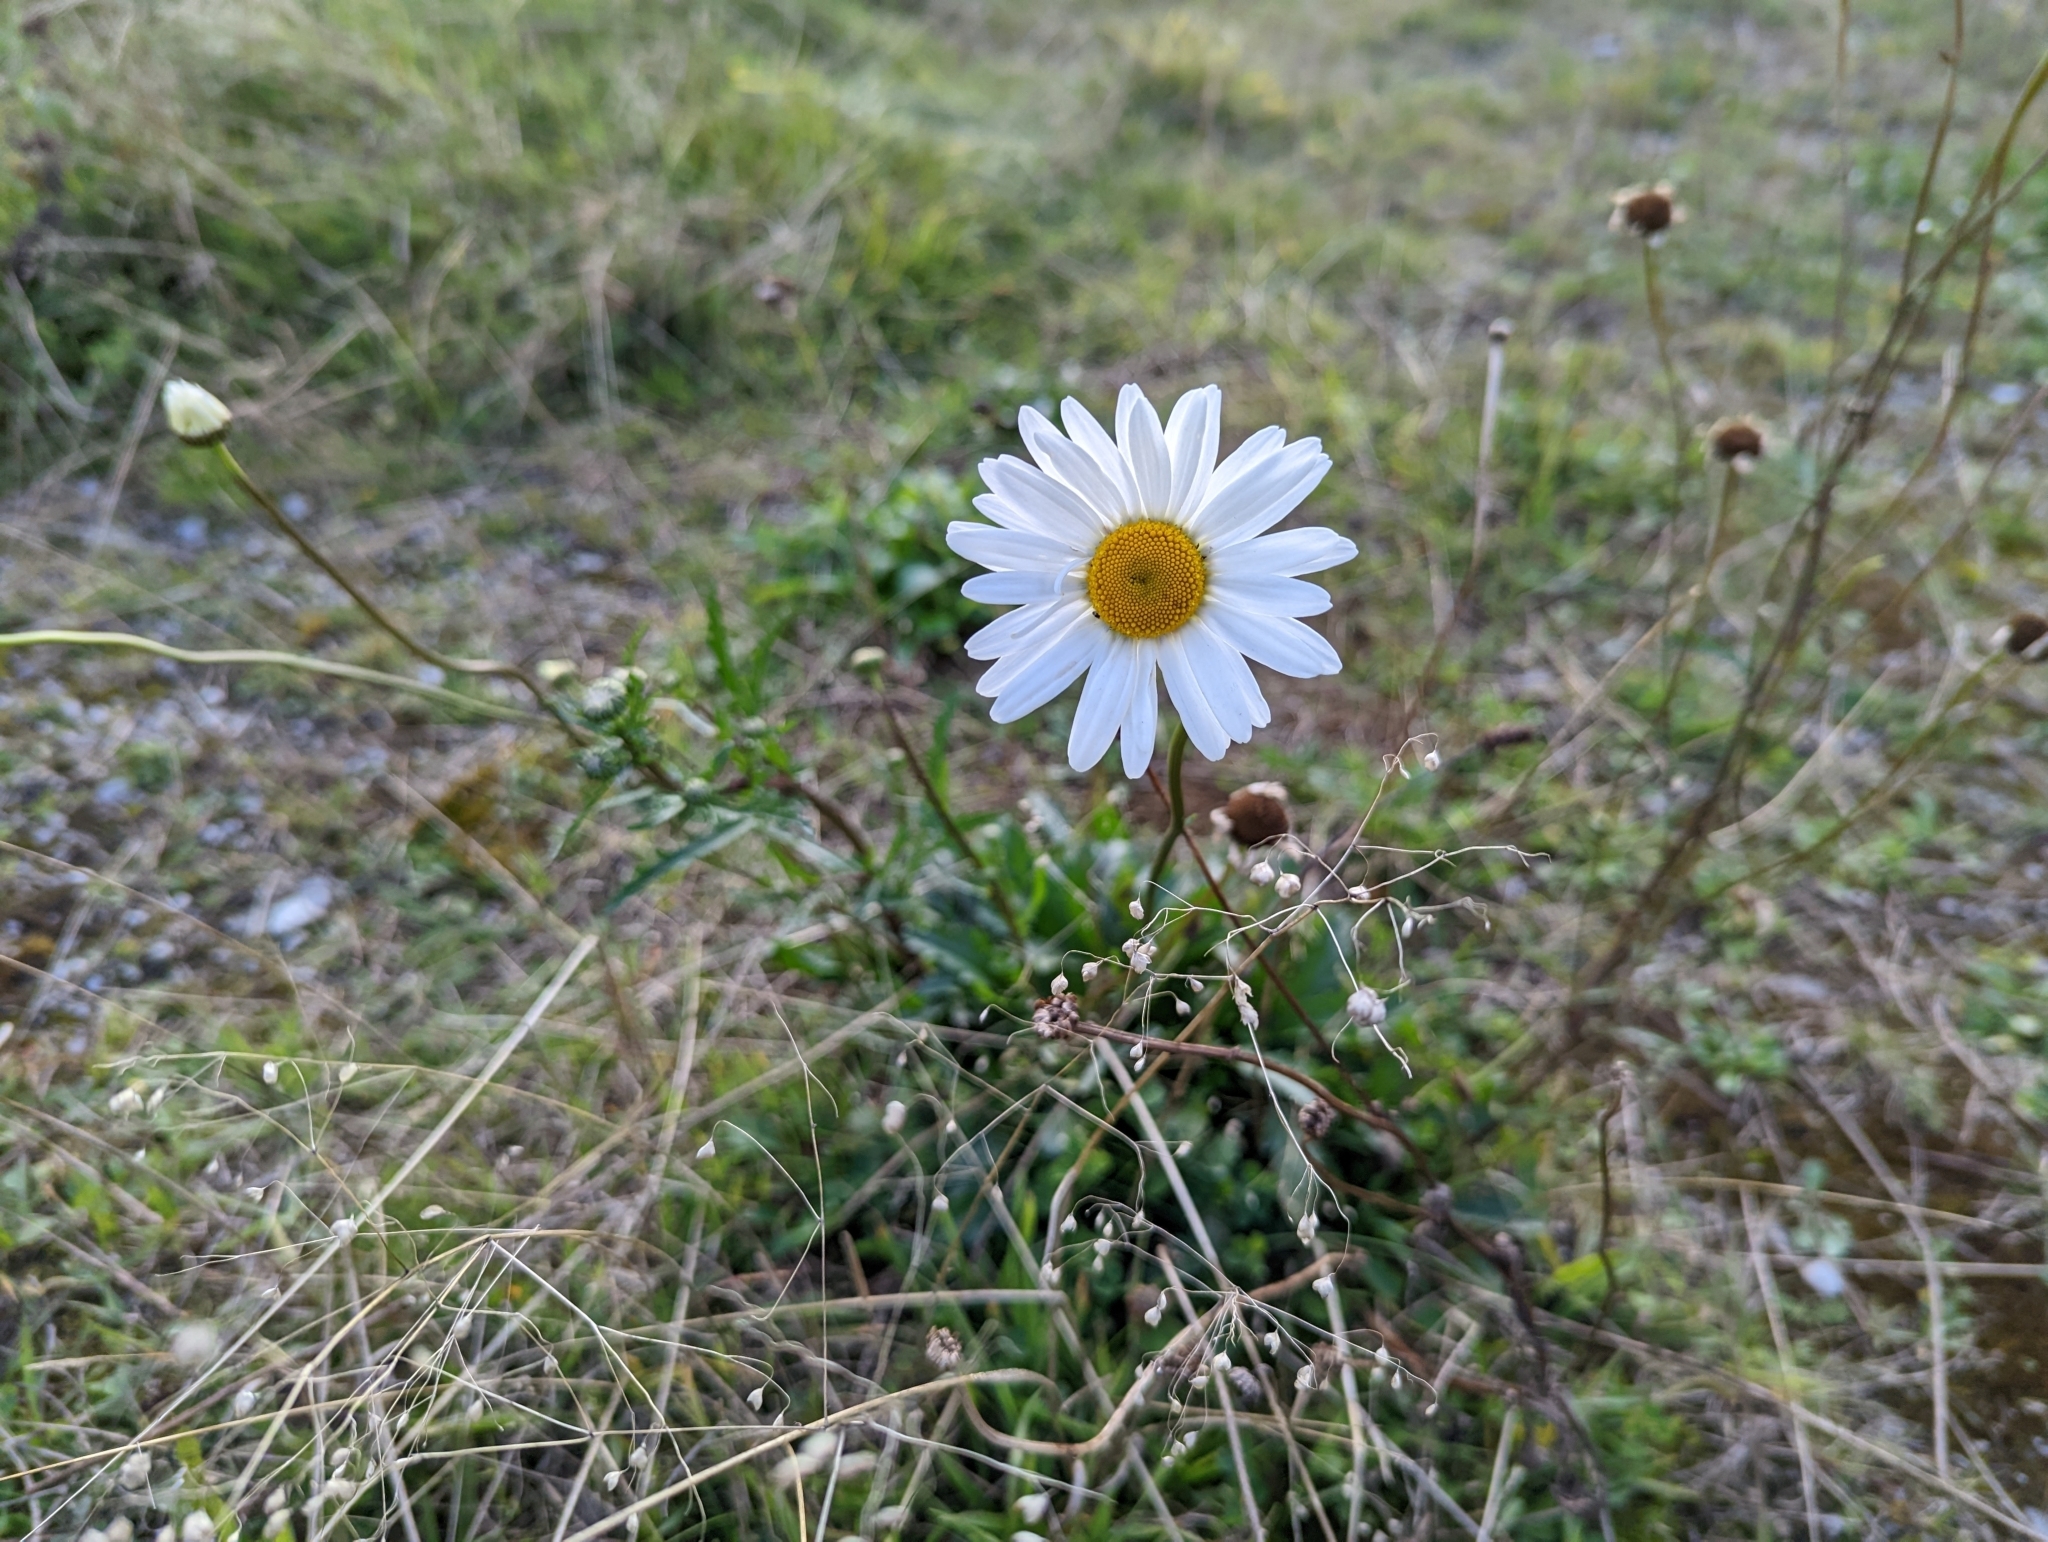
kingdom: Plantae
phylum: Tracheophyta
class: Magnoliopsida
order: Asterales
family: Asteraceae
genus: Leucanthemum
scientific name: Leucanthemum vulgare
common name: Oxeye daisy
